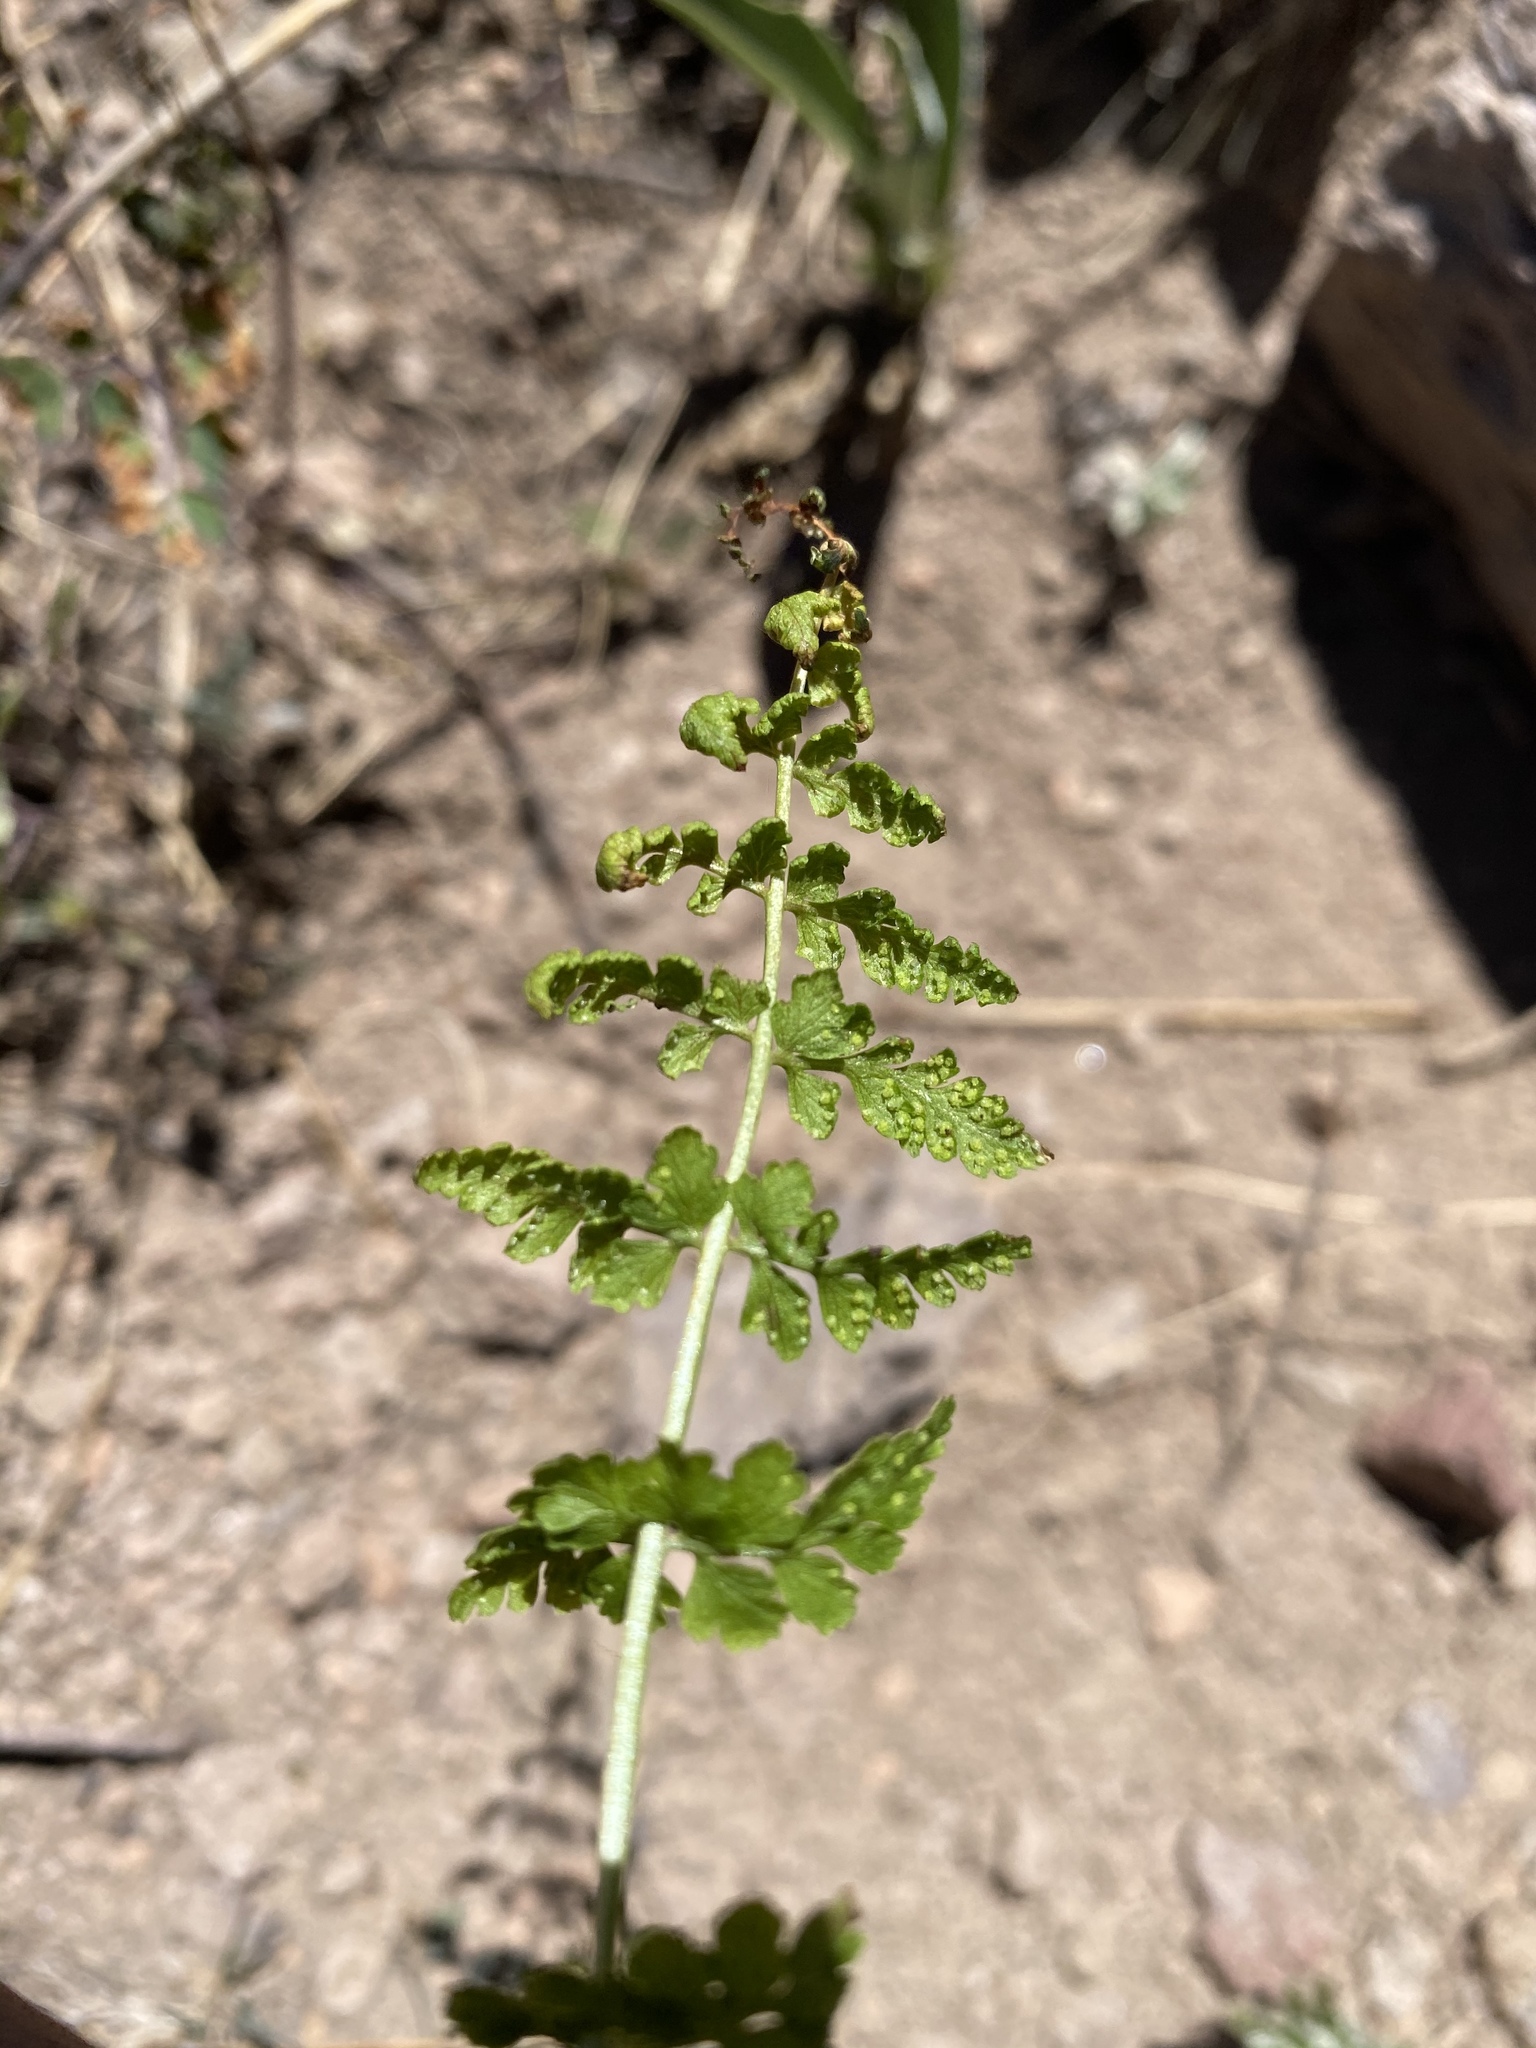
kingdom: Plantae
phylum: Tracheophyta
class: Polypodiopsida
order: Polypodiales
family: Cystopteridaceae
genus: Cystopteris
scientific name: Cystopteris fragilis
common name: Brittle bladder fern
